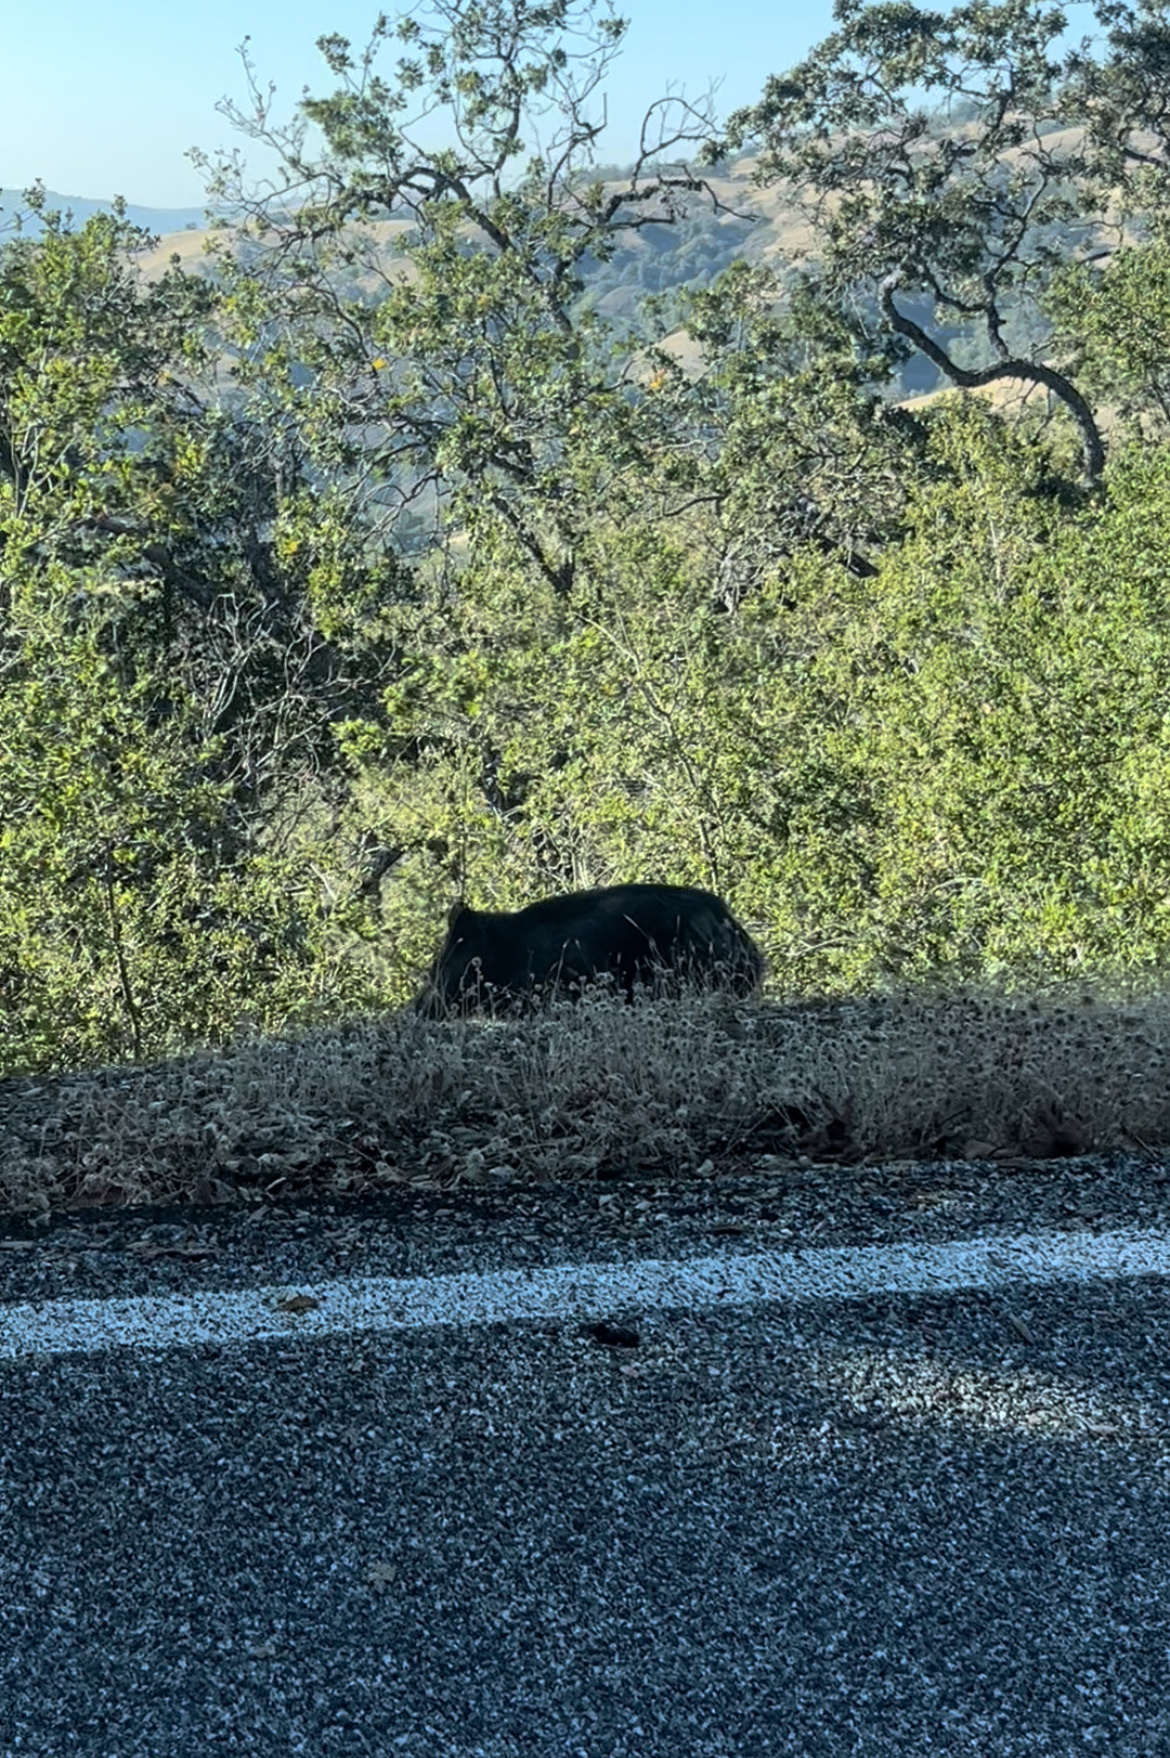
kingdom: Animalia
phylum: Chordata
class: Mammalia
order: Artiodactyla
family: Suidae
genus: Sus
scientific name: Sus scrofa
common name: Wild boar
